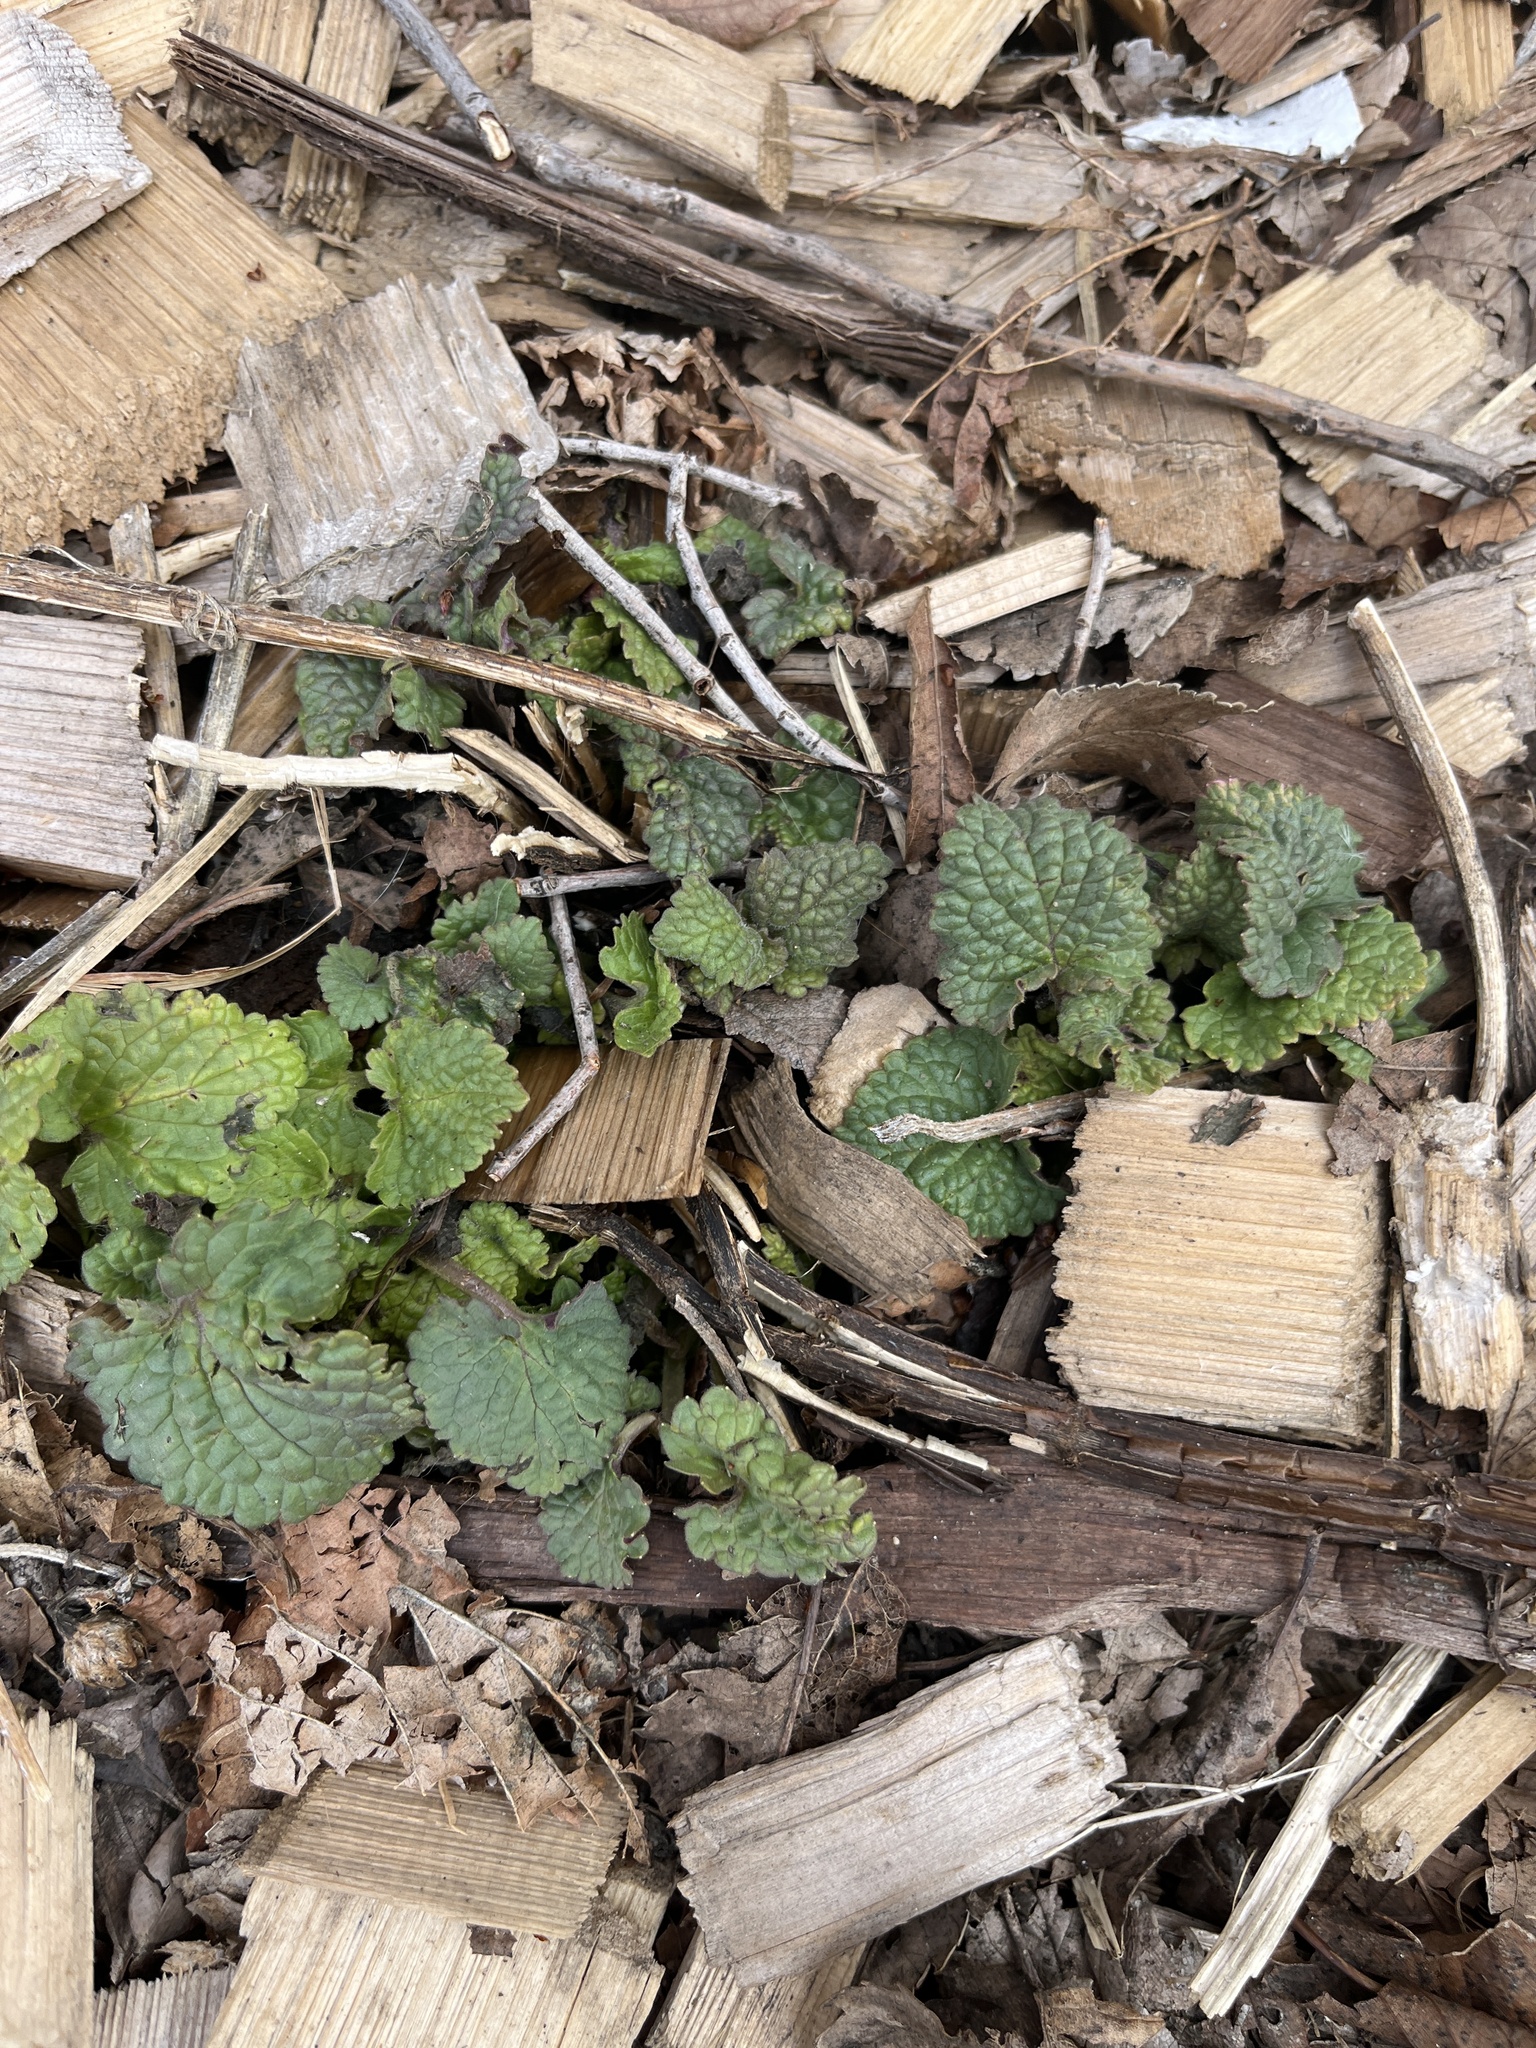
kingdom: Plantae
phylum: Tracheophyta
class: Magnoliopsida
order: Brassicales
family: Brassicaceae
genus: Alliaria
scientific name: Alliaria petiolata
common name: Garlic mustard
